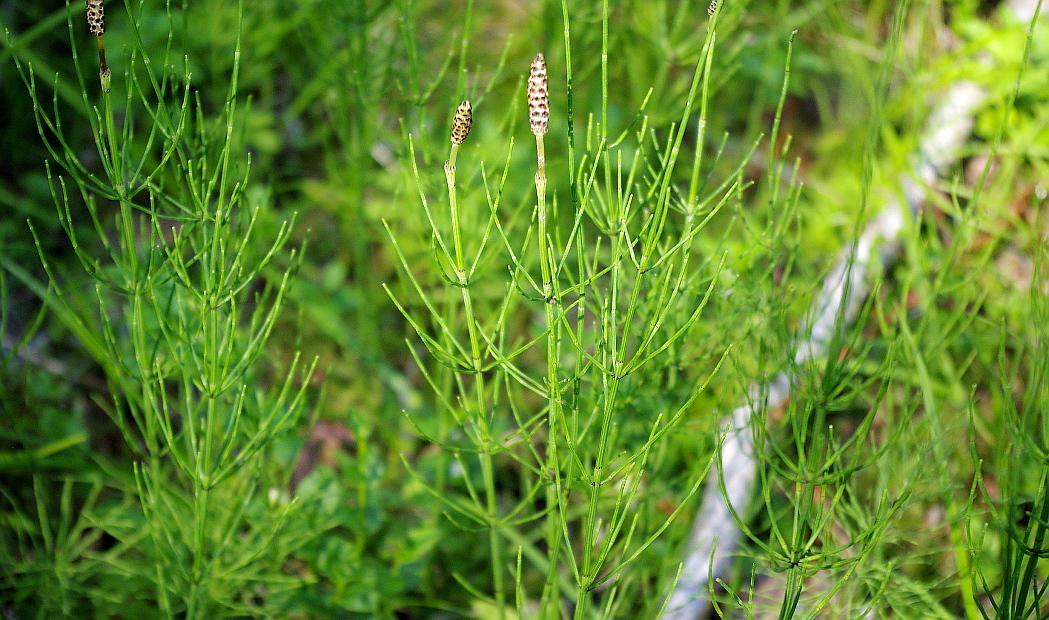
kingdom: Plantae
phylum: Tracheophyta
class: Polypodiopsida
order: Equisetales
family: Equisetaceae
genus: Equisetum
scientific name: Equisetum palustre
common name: Marsh horsetail
